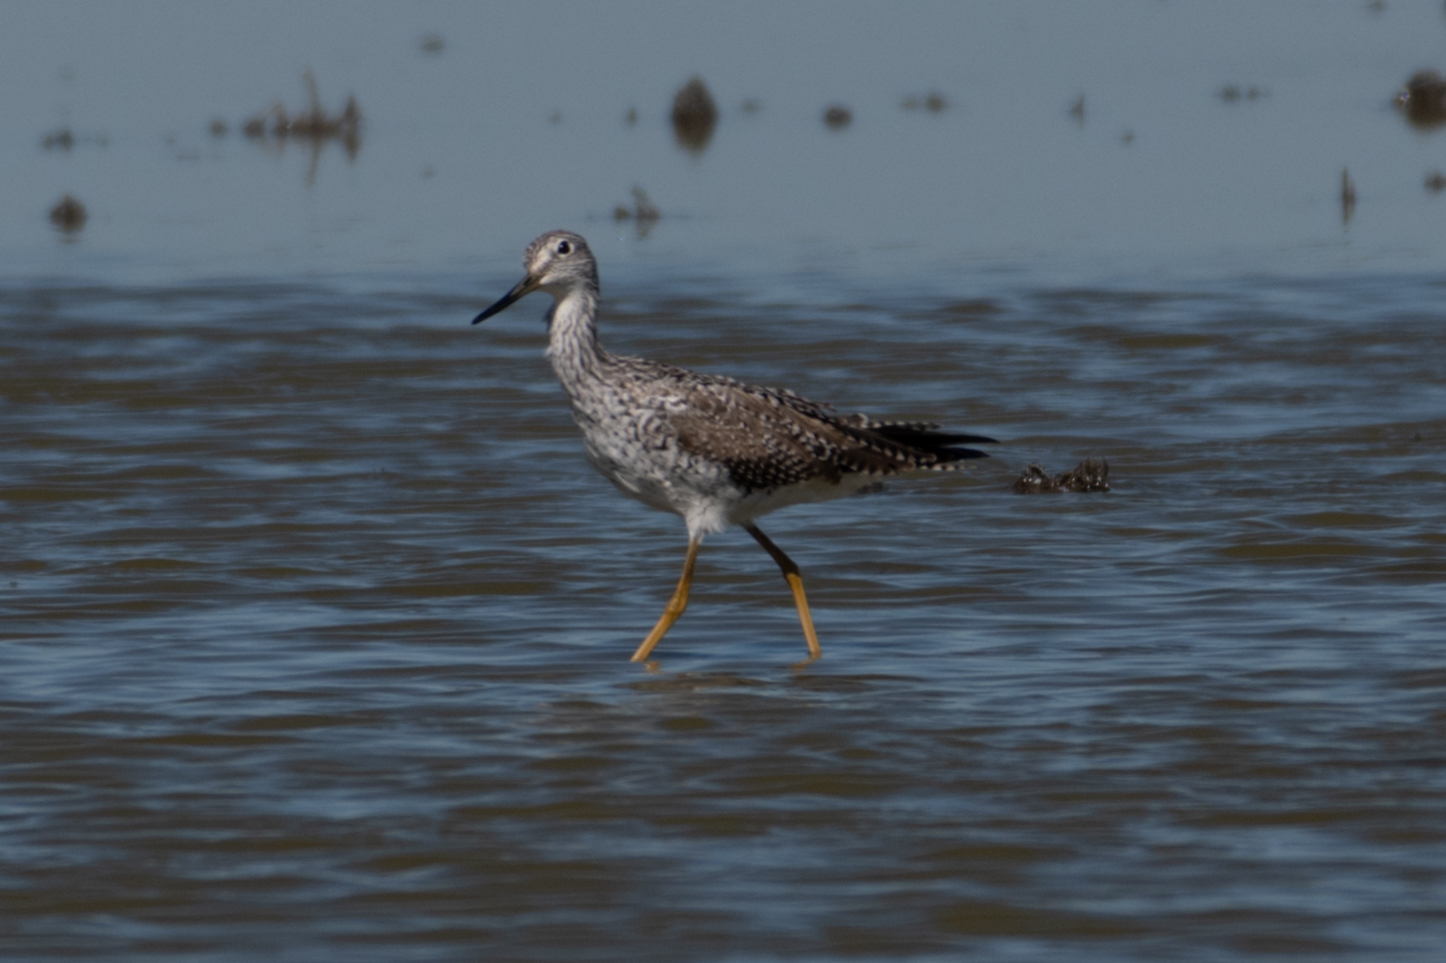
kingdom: Animalia
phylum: Chordata
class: Aves
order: Charadriiformes
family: Scolopacidae
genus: Tringa
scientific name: Tringa melanoleuca
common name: Greater yellowlegs
